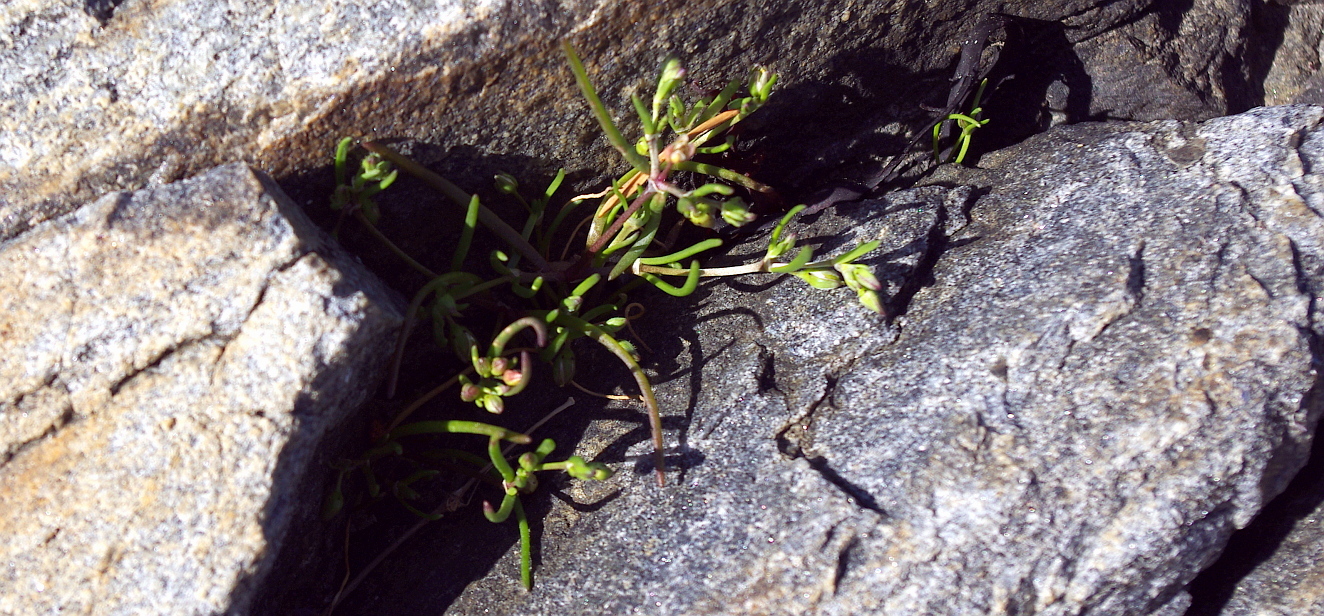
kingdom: Plantae
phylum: Tracheophyta
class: Magnoliopsida
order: Caryophyllales
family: Caryophyllaceae
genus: Spergularia
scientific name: Spergularia marina
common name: Lesser sea-spurrey
